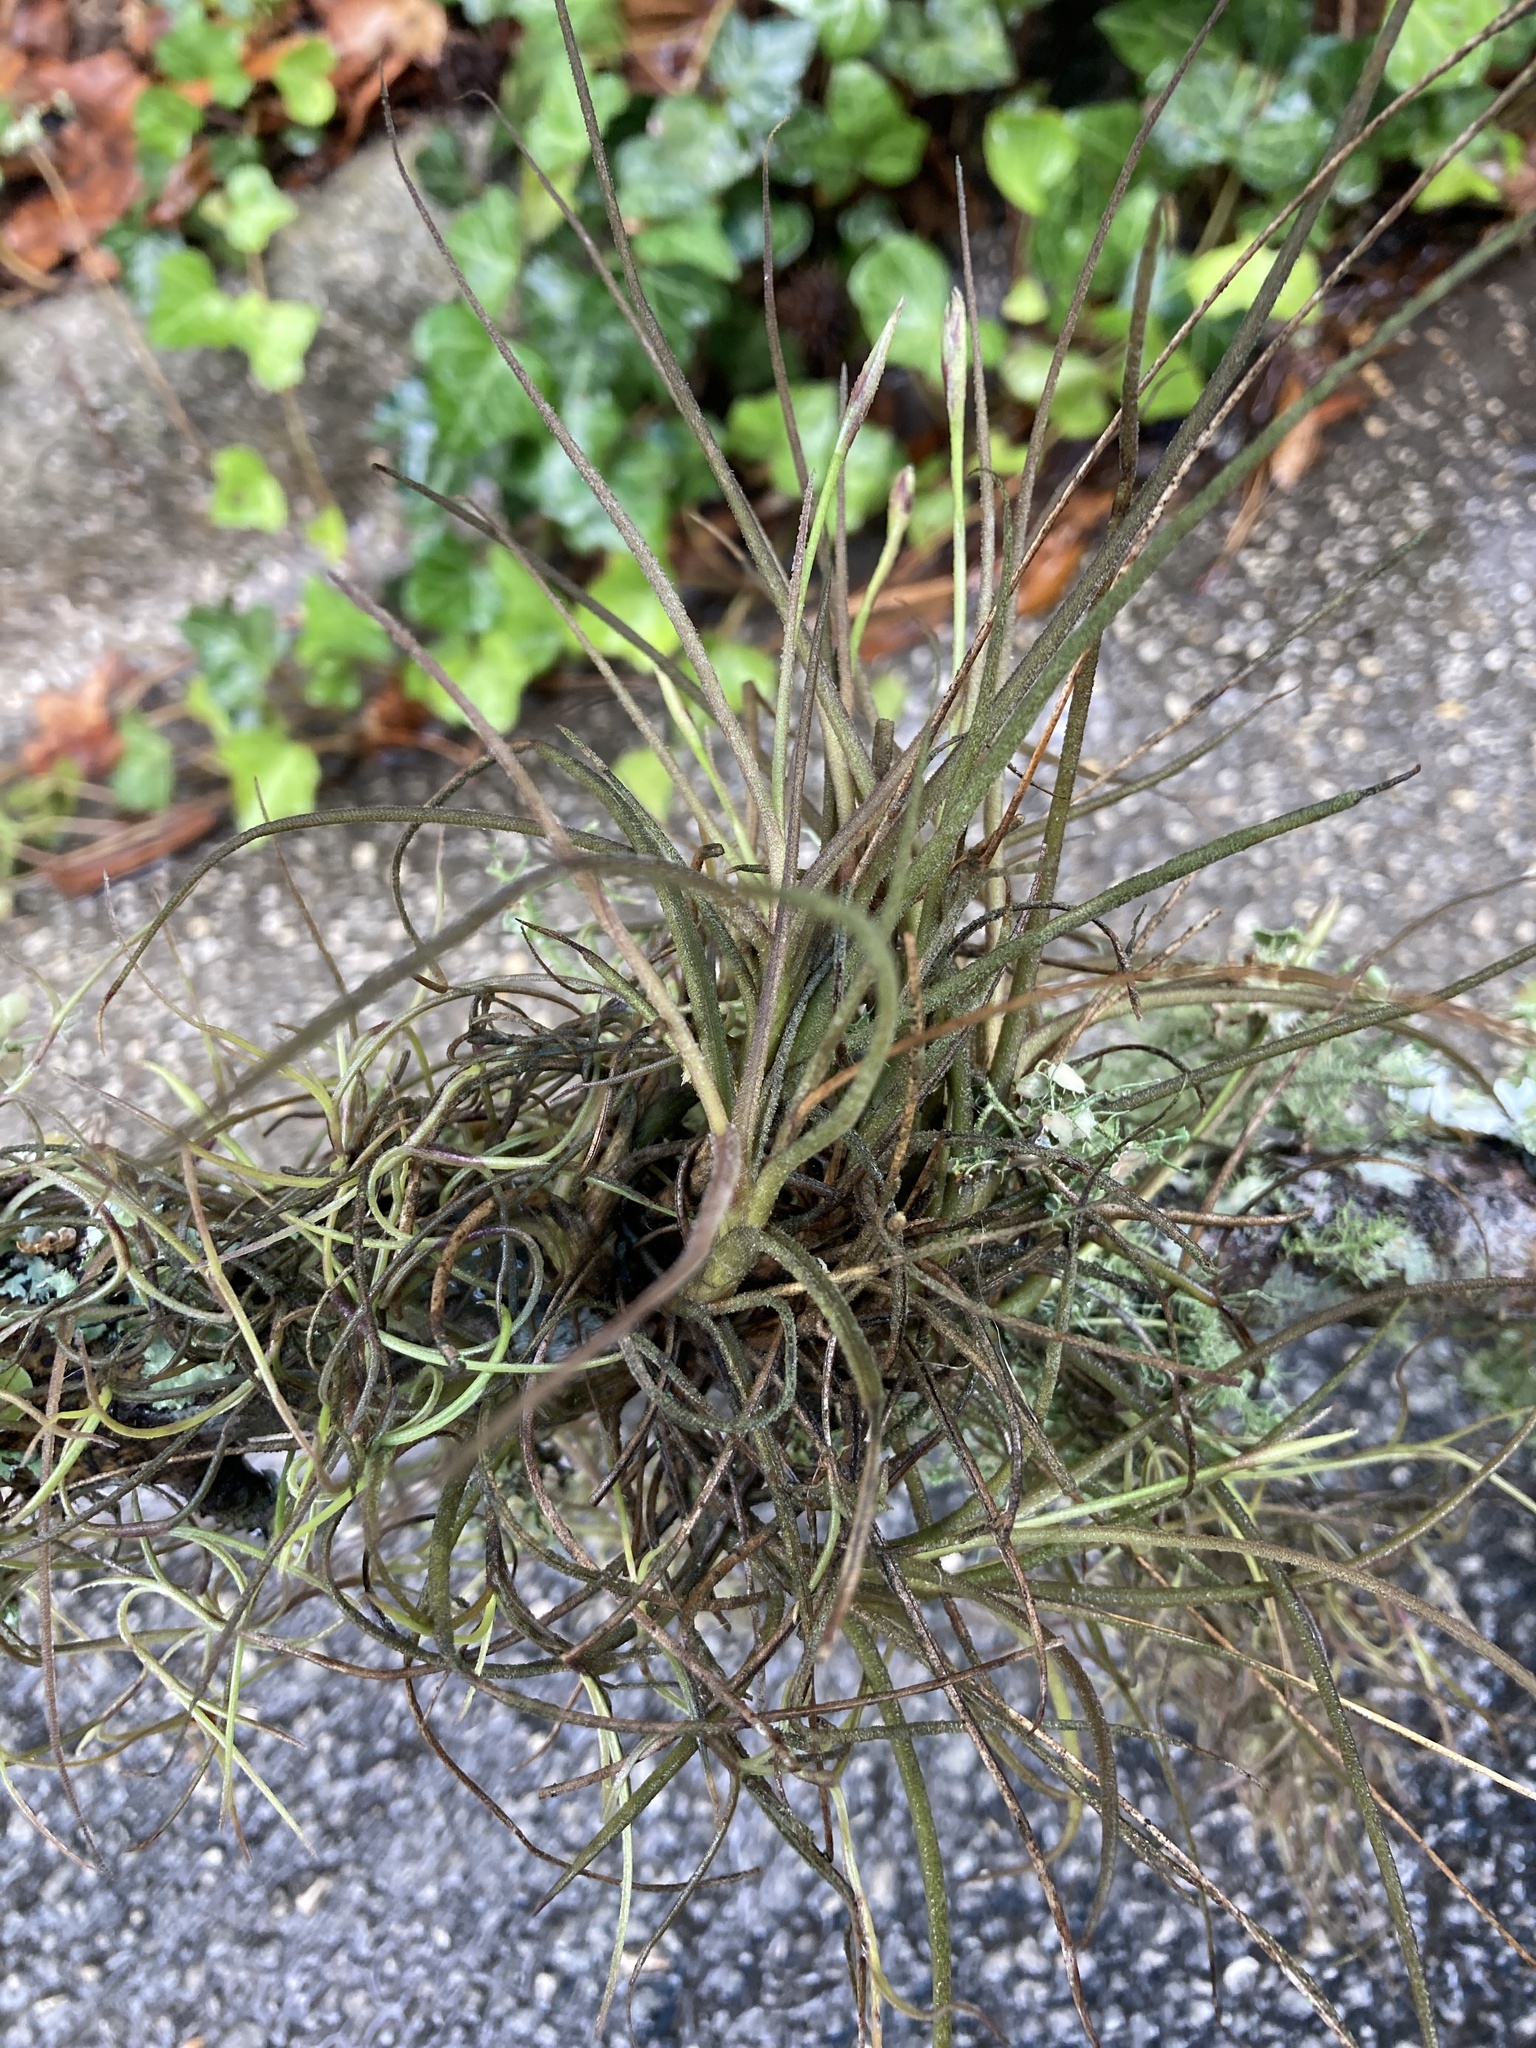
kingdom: Plantae
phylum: Tracheophyta
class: Liliopsida
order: Poales
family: Bromeliaceae
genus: Tillandsia
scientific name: Tillandsia recurvata
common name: Small ballmoss
